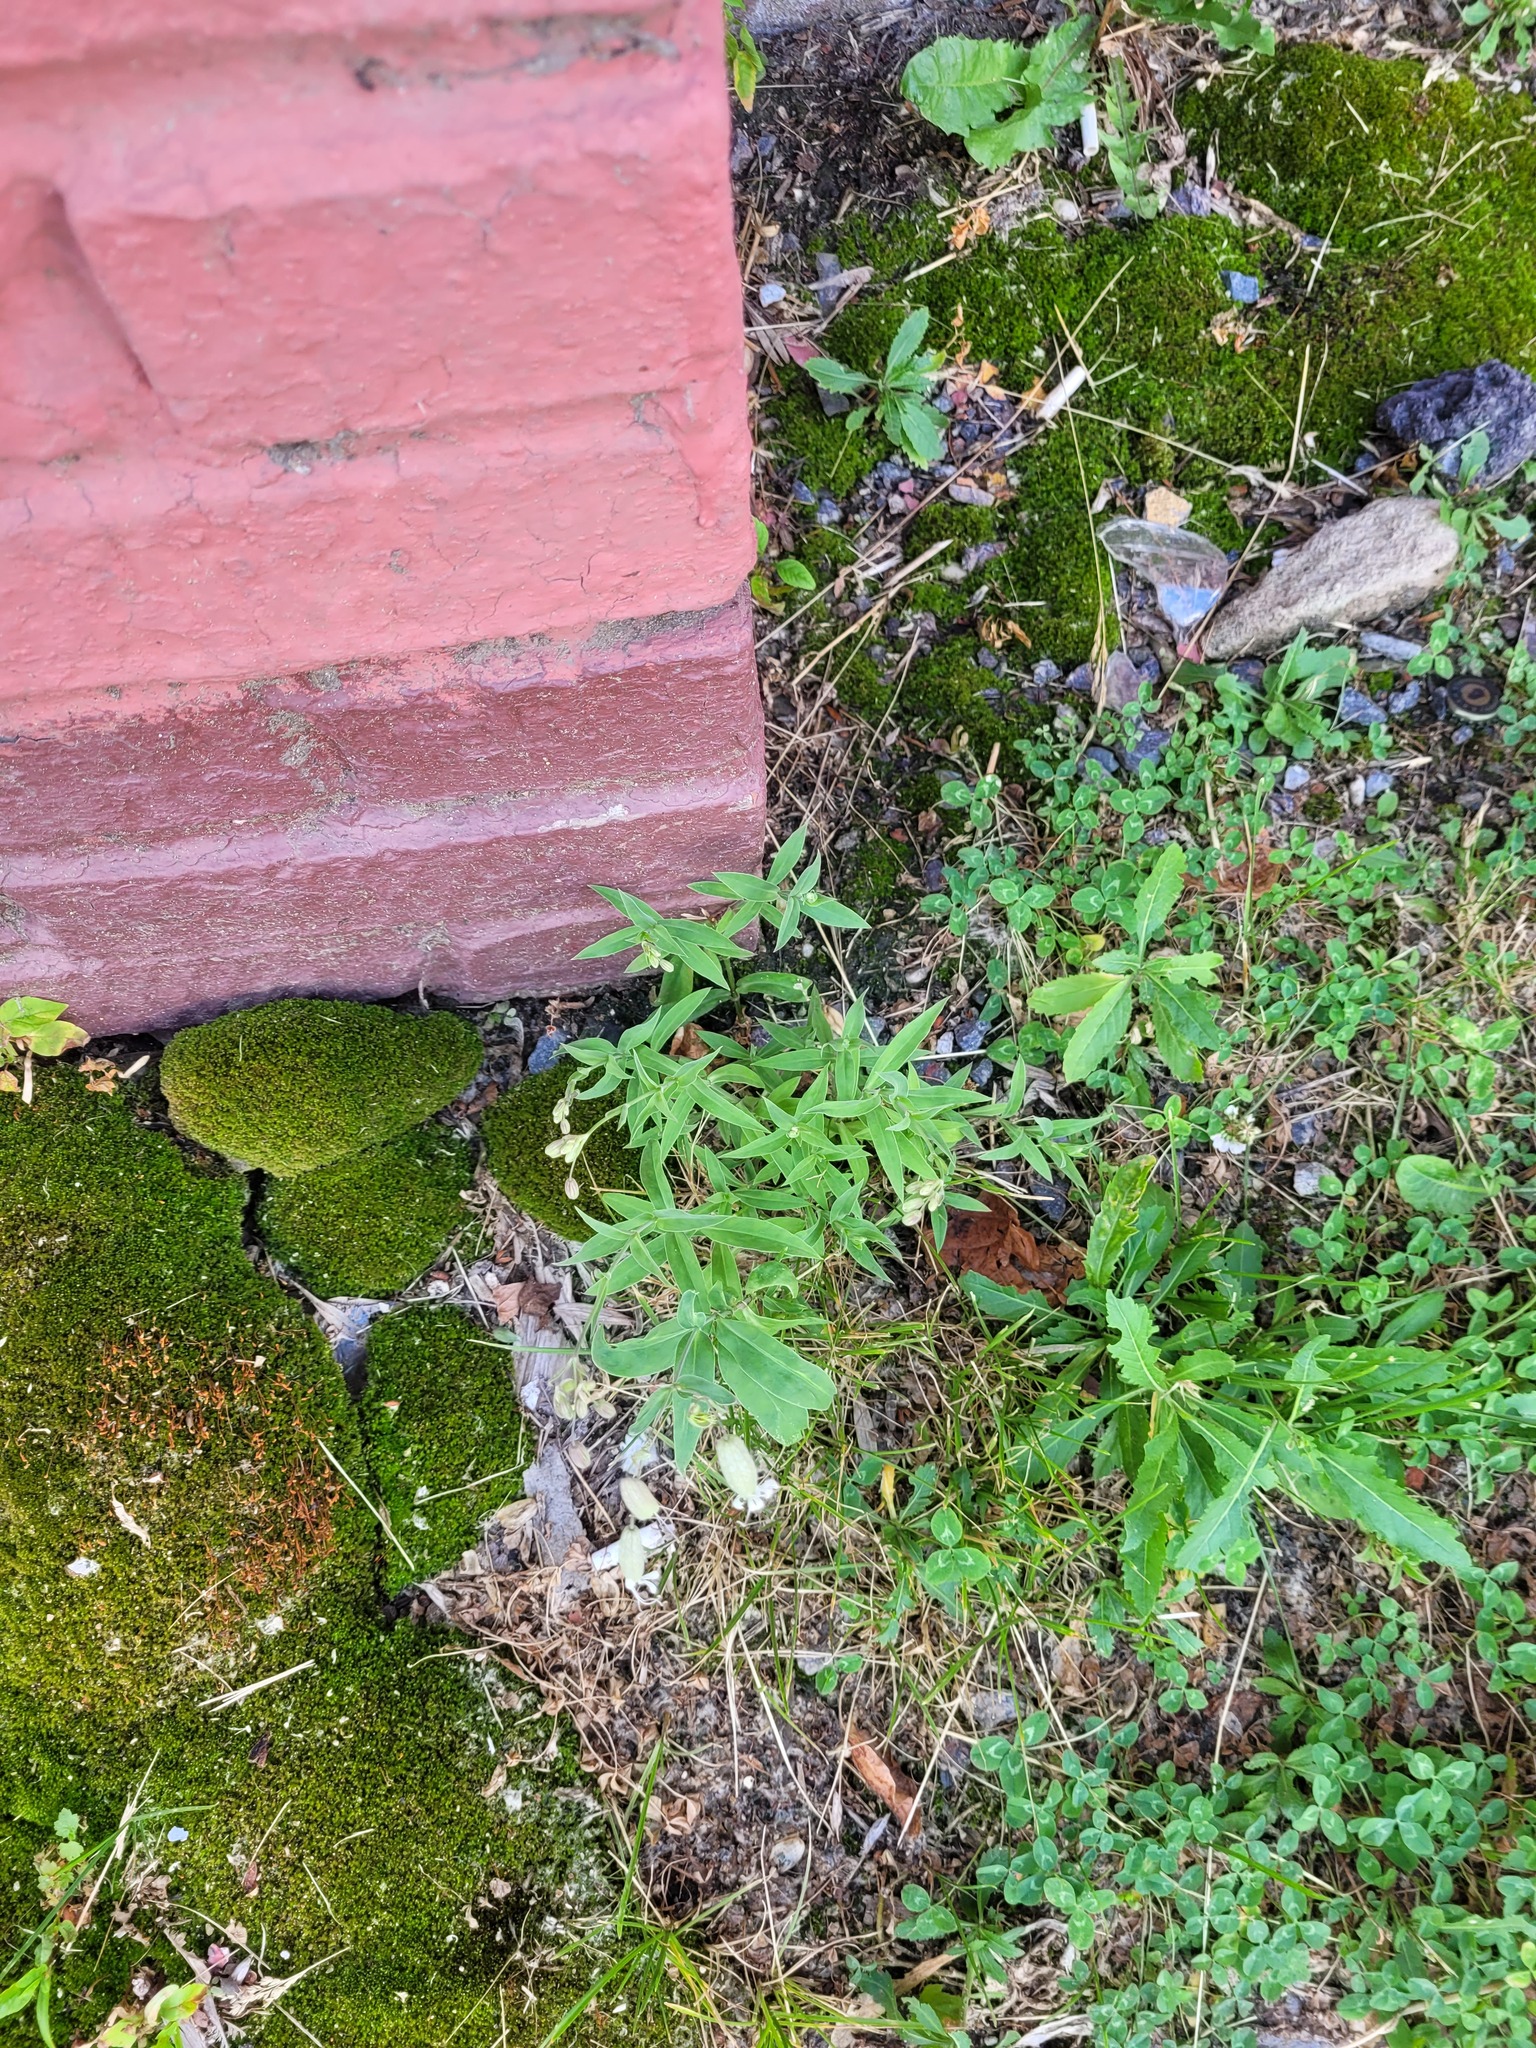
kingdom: Plantae
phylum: Tracheophyta
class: Magnoliopsida
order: Caryophyllales
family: Caryophyllaceae
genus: Silene
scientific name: Silene vulgaris
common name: Bladder campion
